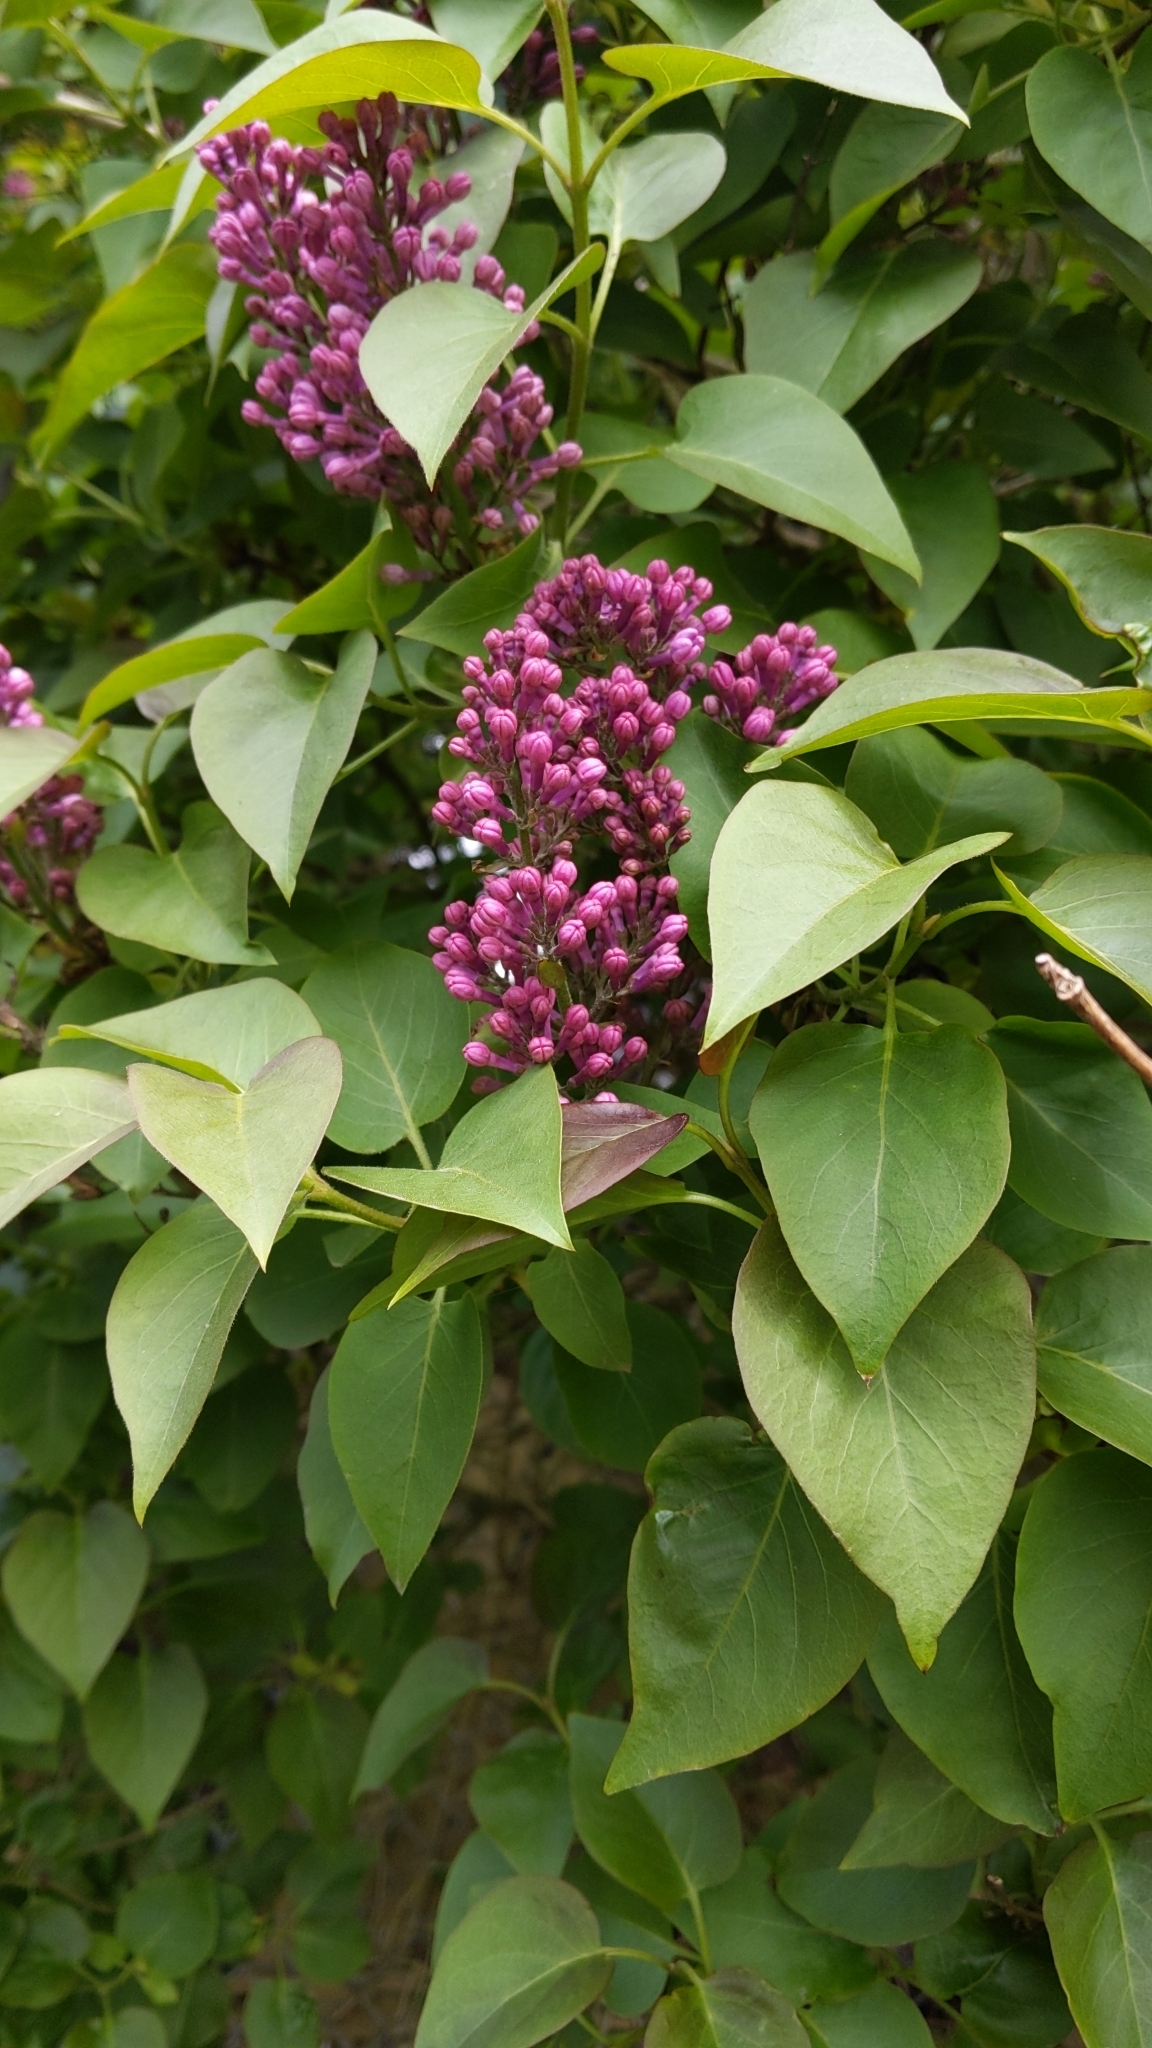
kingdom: Plantae
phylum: Tracheophyta
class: Magnoliopsida
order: Lamiales
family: Oleaceae
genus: Syringa
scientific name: Syringa vulgaris
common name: Common lilac
